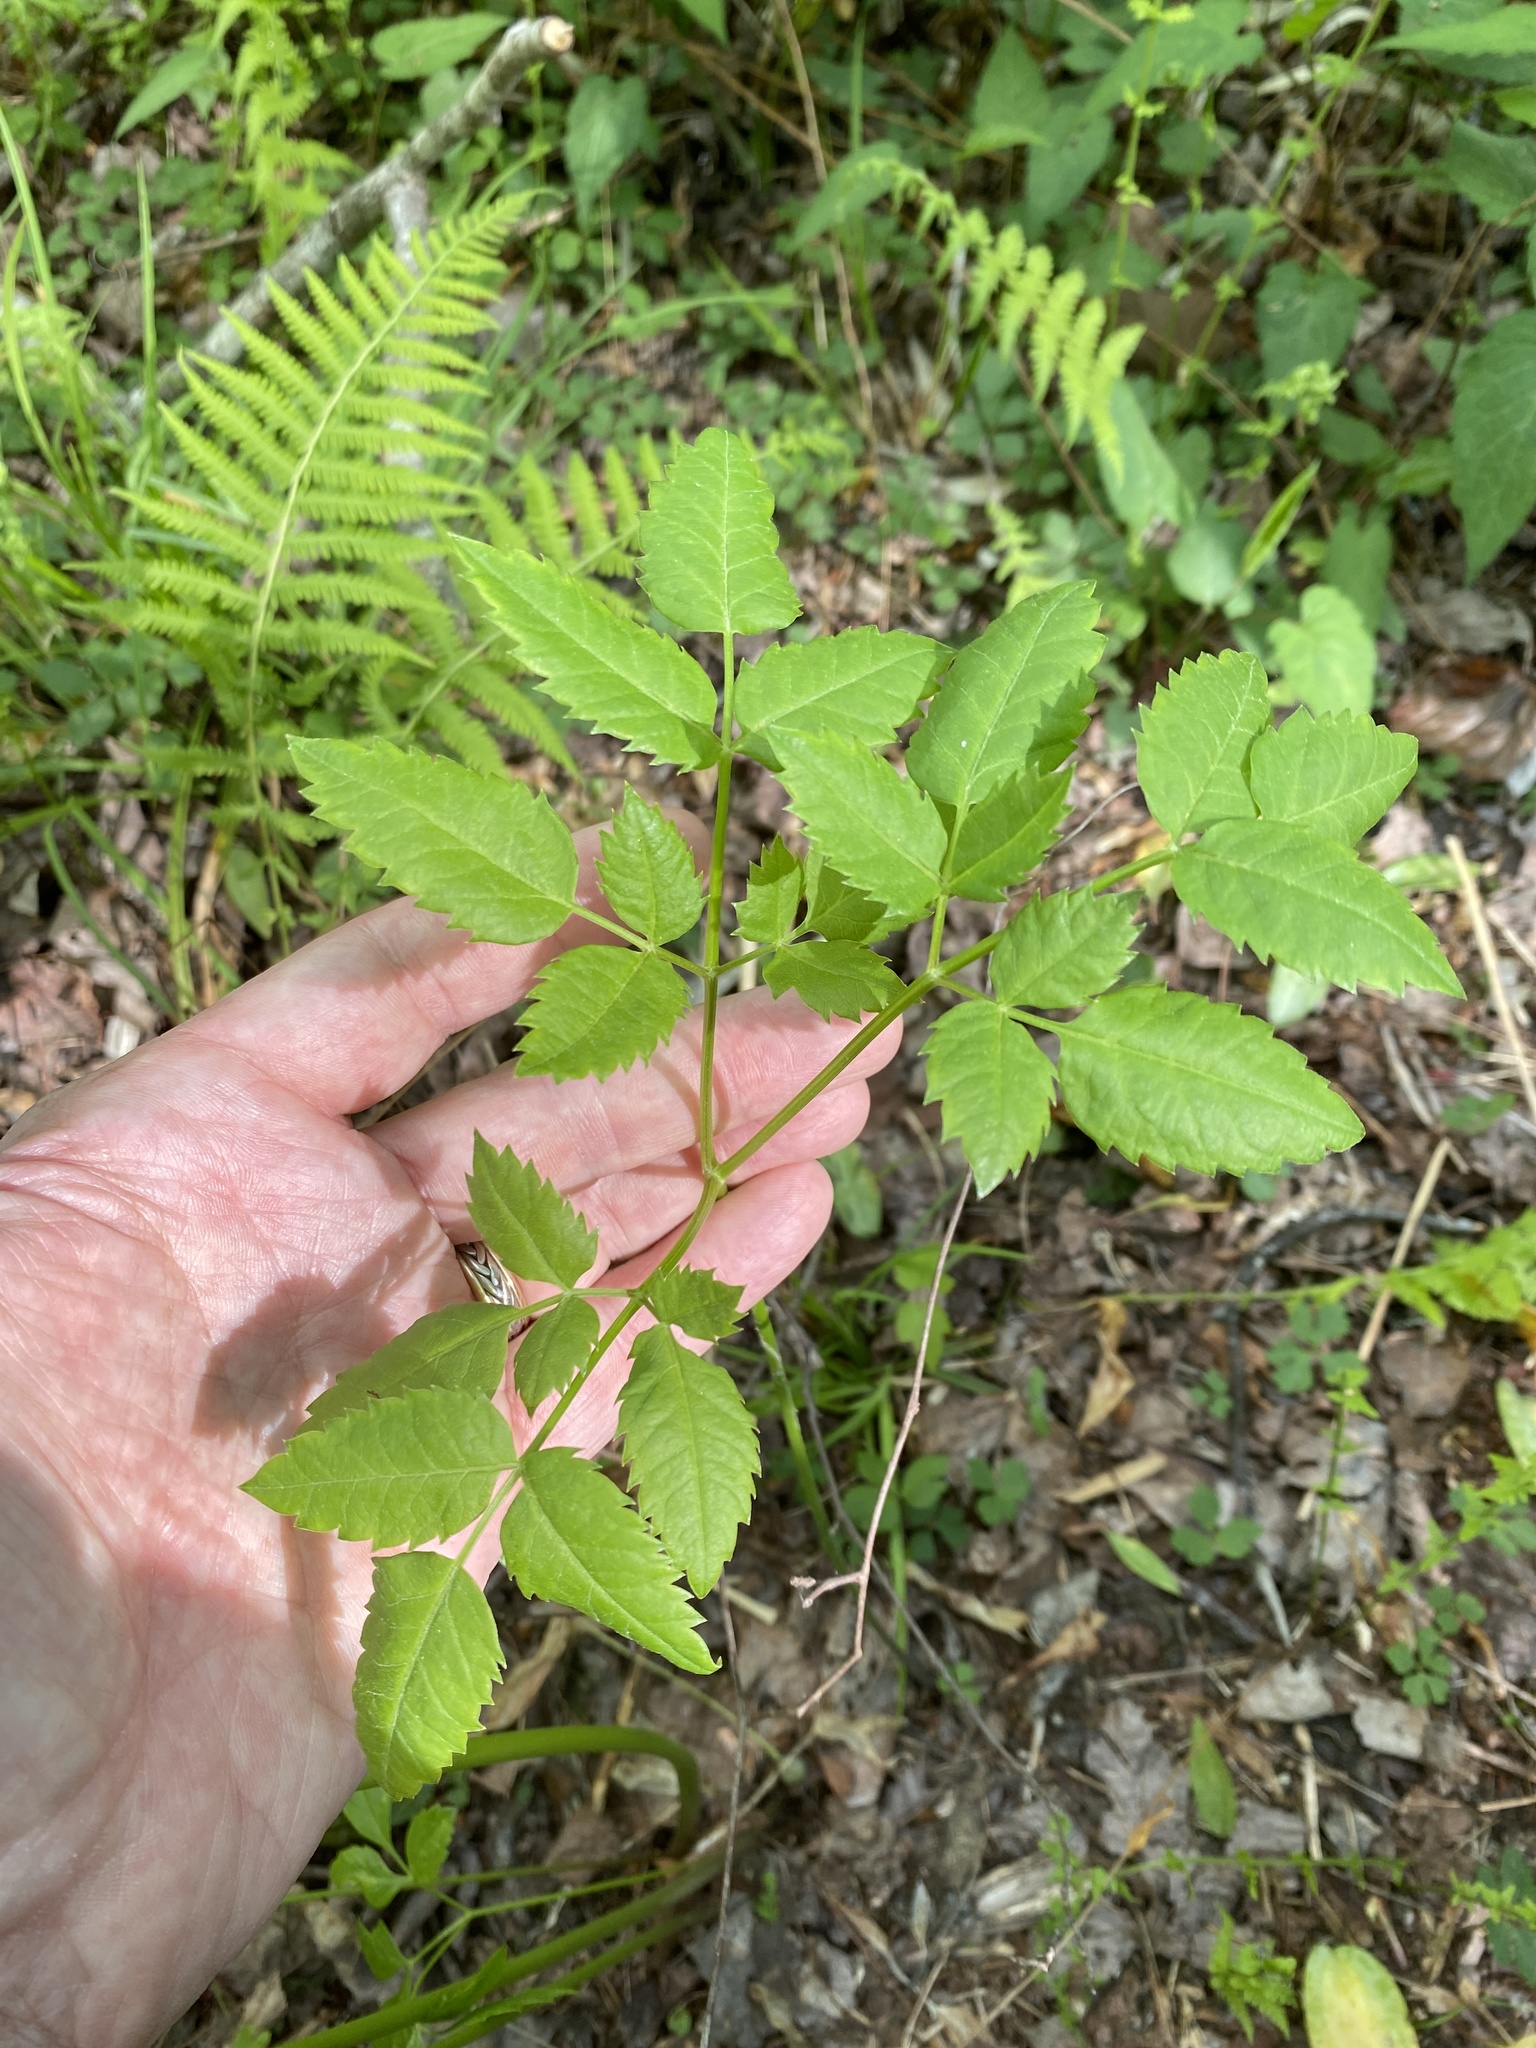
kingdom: Plantae
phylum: Tracheophyta
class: Magnoliopsida
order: Apiales
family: Apiaceae
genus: Ligusticum
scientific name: Ligusticum canadense
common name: American lovage
